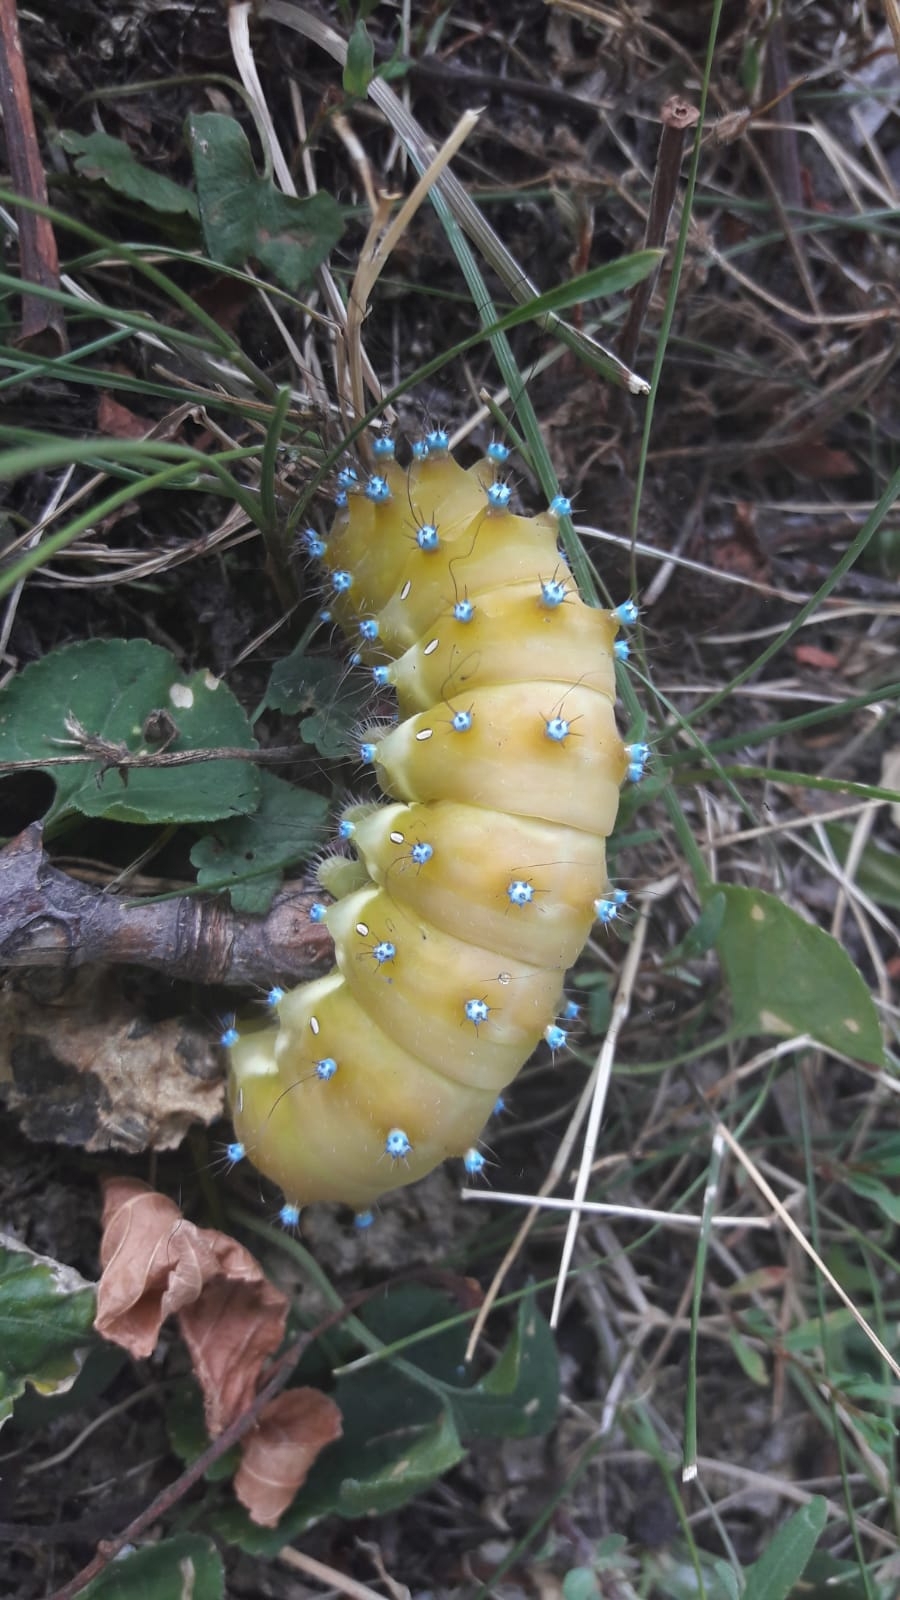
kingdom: Animalia
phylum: Arthropoda
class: Insecta
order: Lepidoptera
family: Saturniidae
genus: Saturnia
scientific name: Saturnia pyri
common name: Great peacock moth
